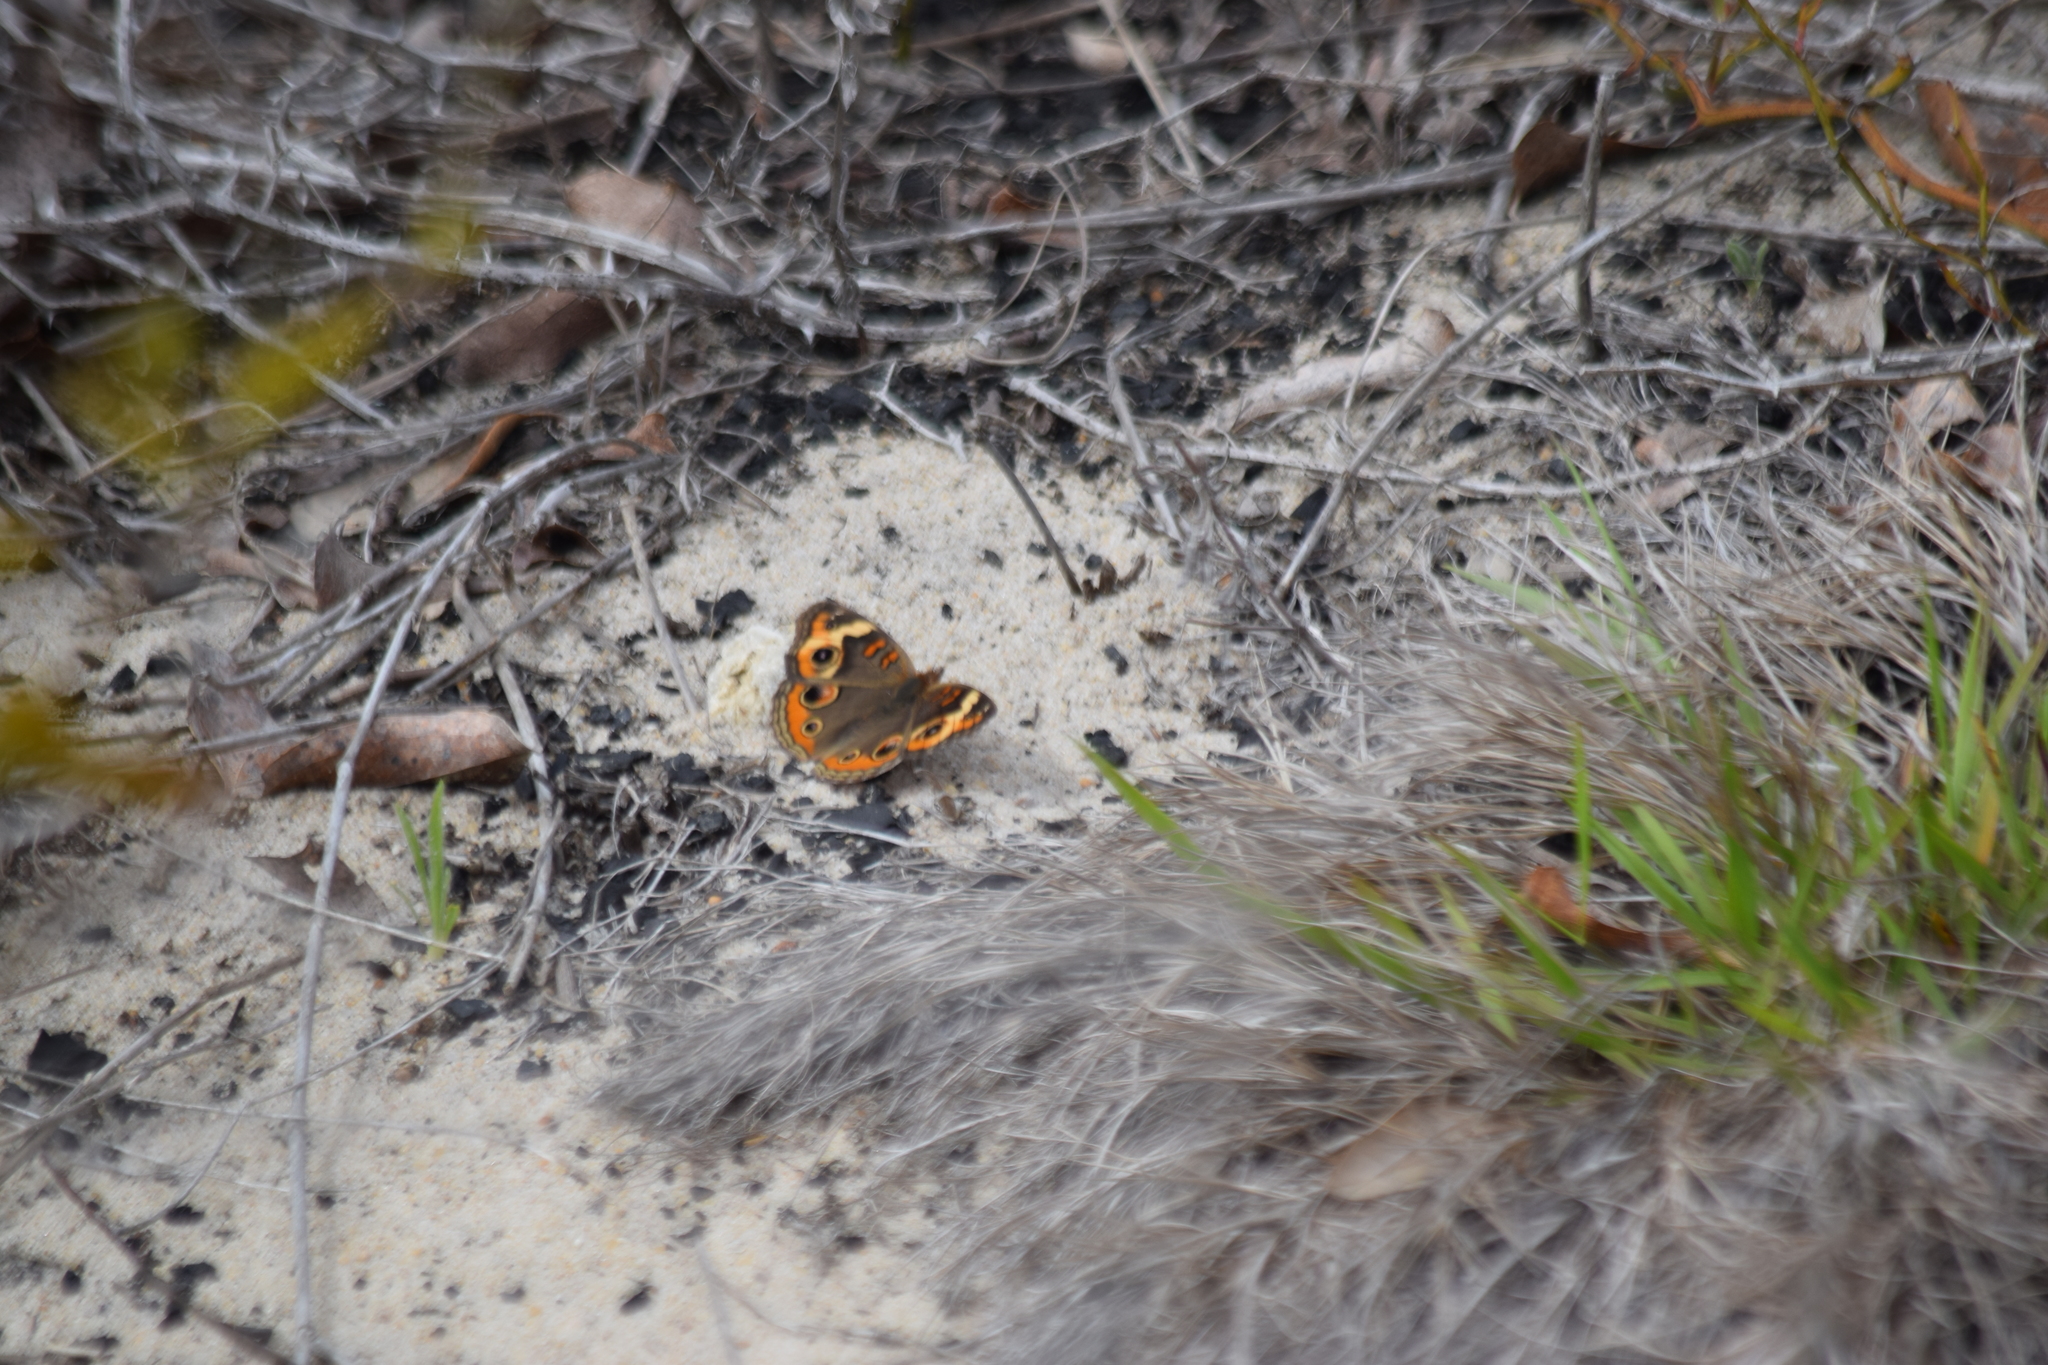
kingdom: Animalia
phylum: Arthropoda
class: Insecta
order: Lepidoptera
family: Nymphalidae
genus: Junonia
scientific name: Junonia coenia
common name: Common buckeye
